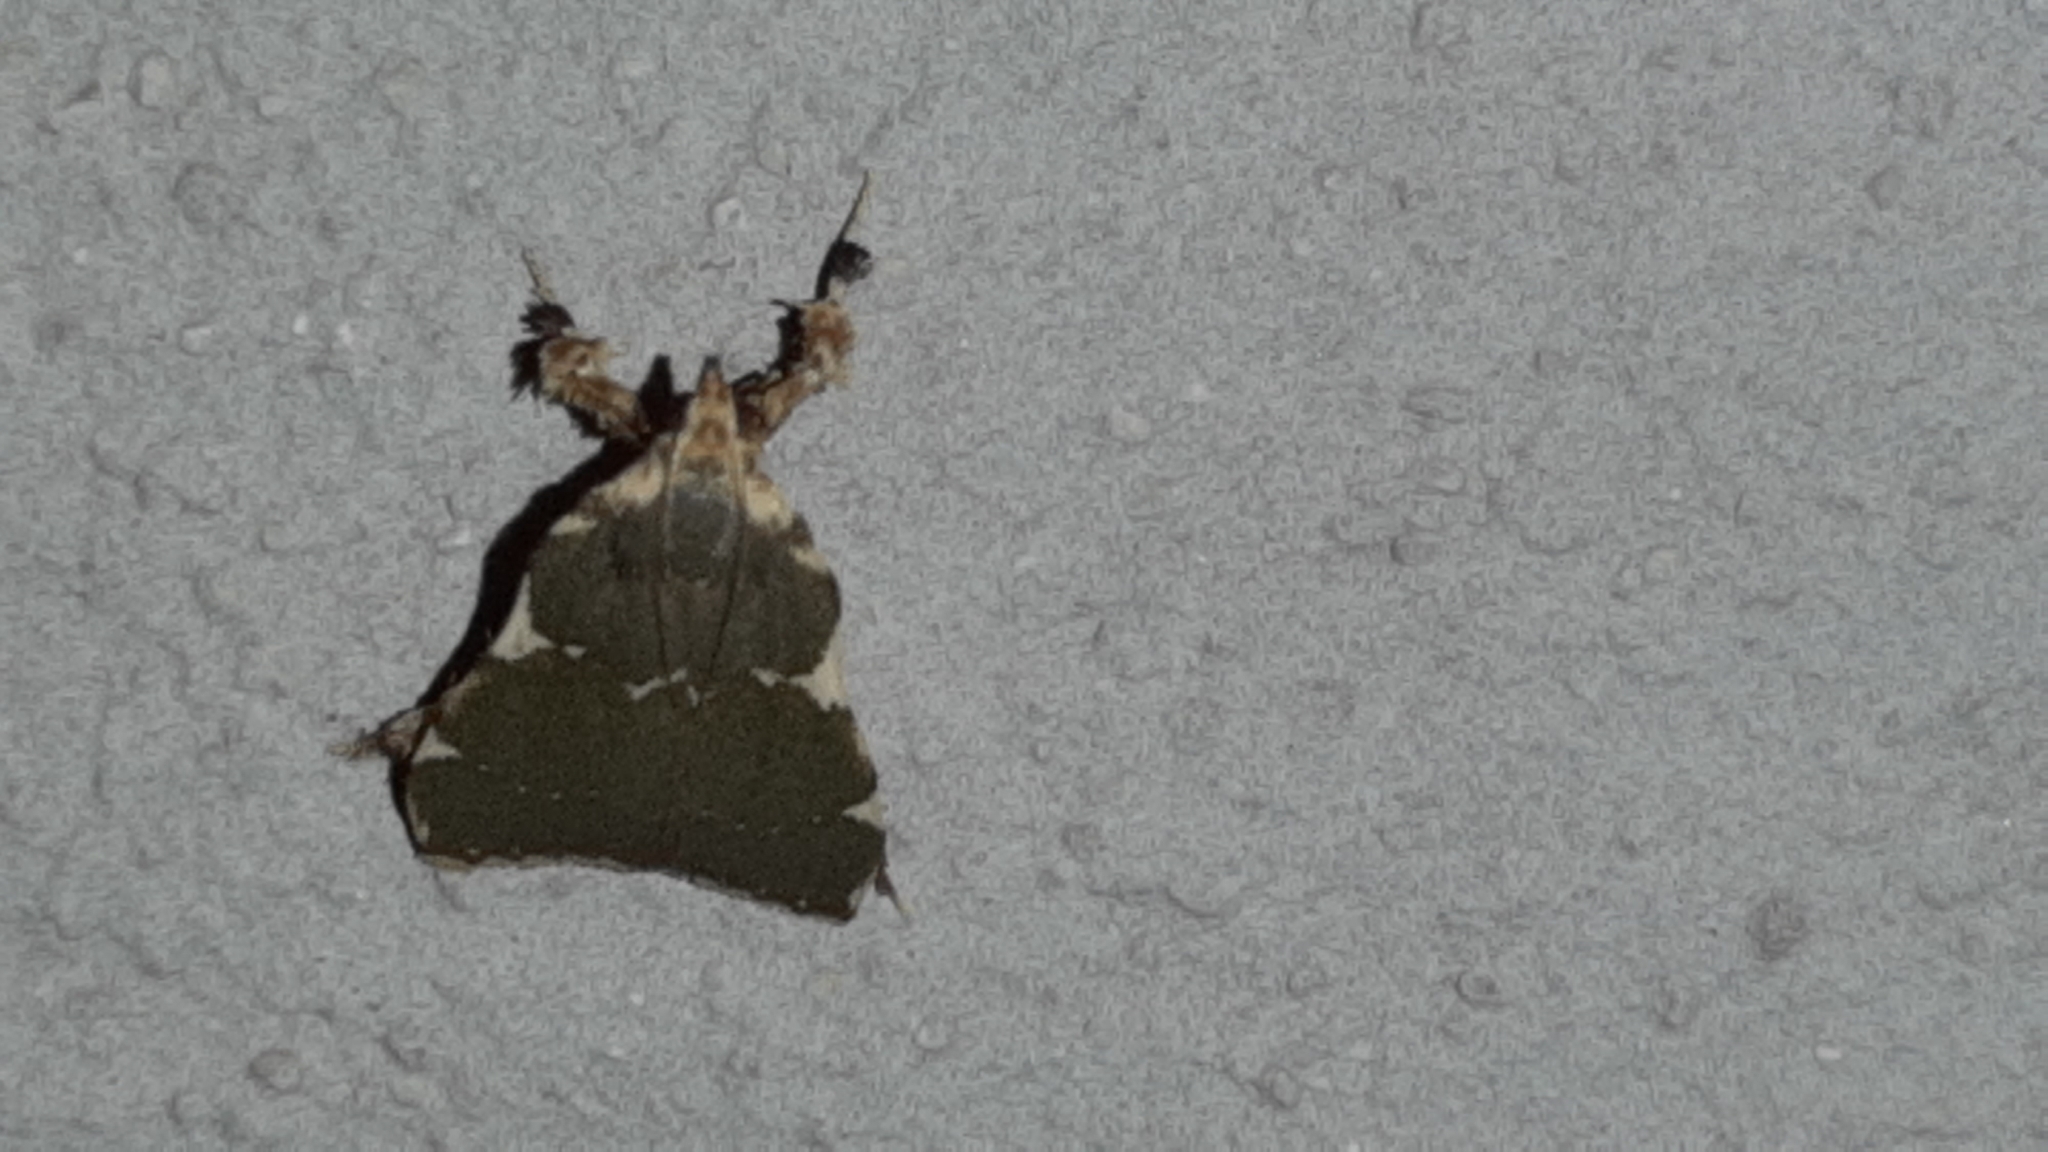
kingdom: Animalia
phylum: Arthropoda
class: Insecta
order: Lepidoptera
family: Pyralidae
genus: Parachma
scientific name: Parachma rufoflavalis
